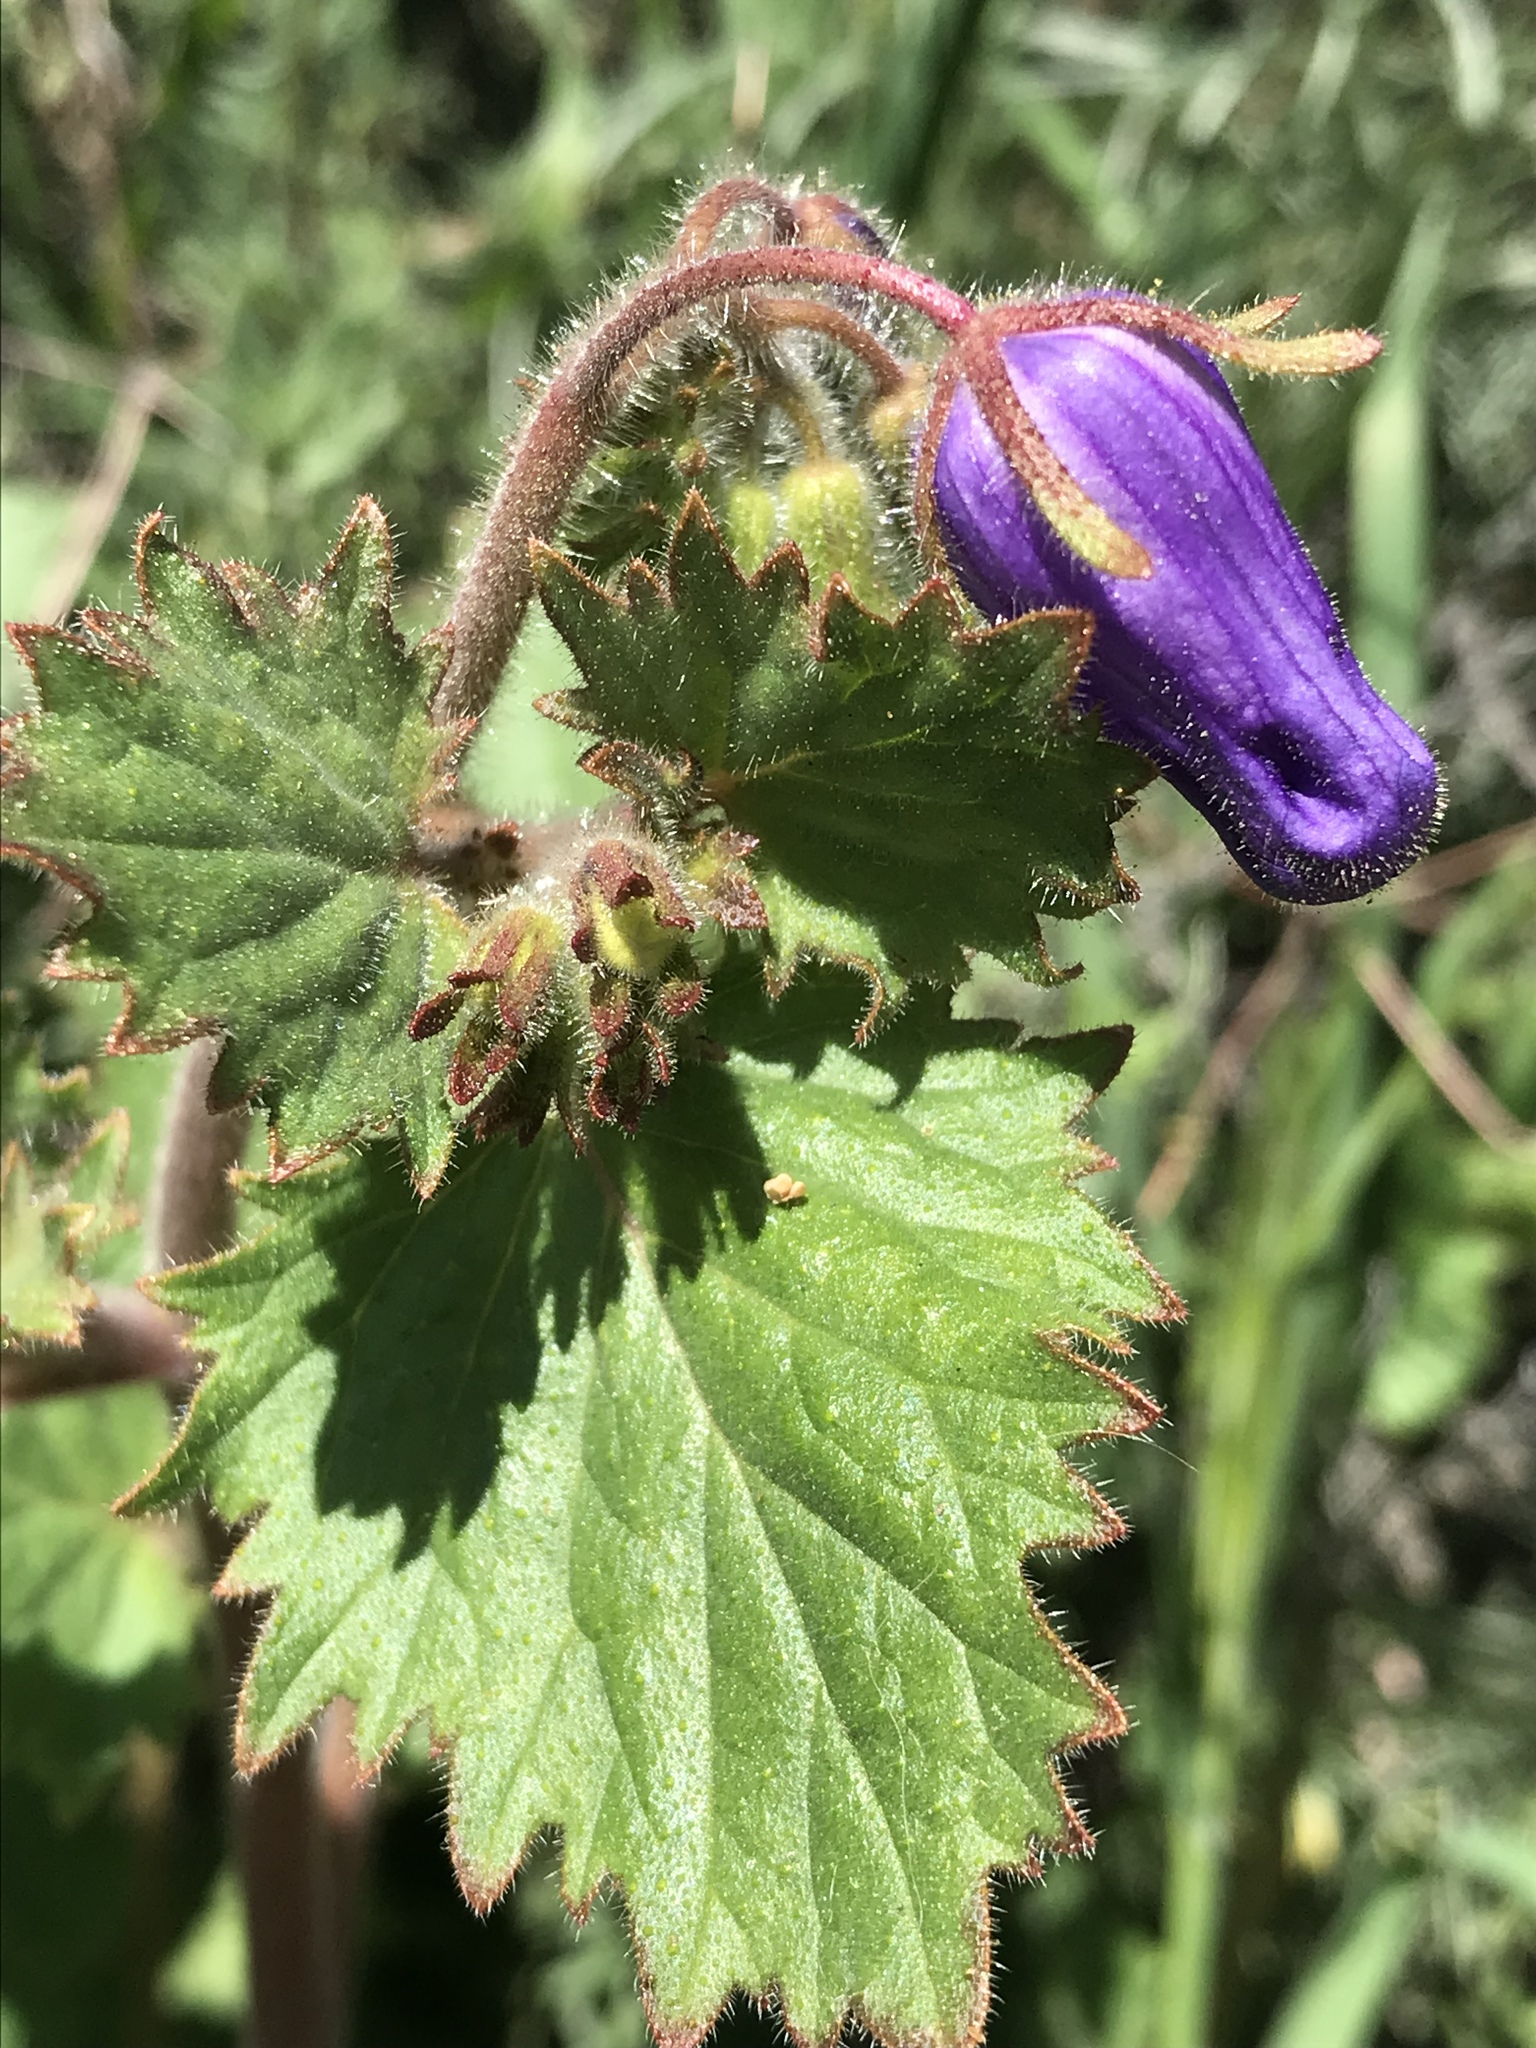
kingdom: Plantae
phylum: Tracheophyta
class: Magnoliopsida
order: Boraginales
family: Hydrophyllaceae
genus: Phacelia
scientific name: Phacelia minor
